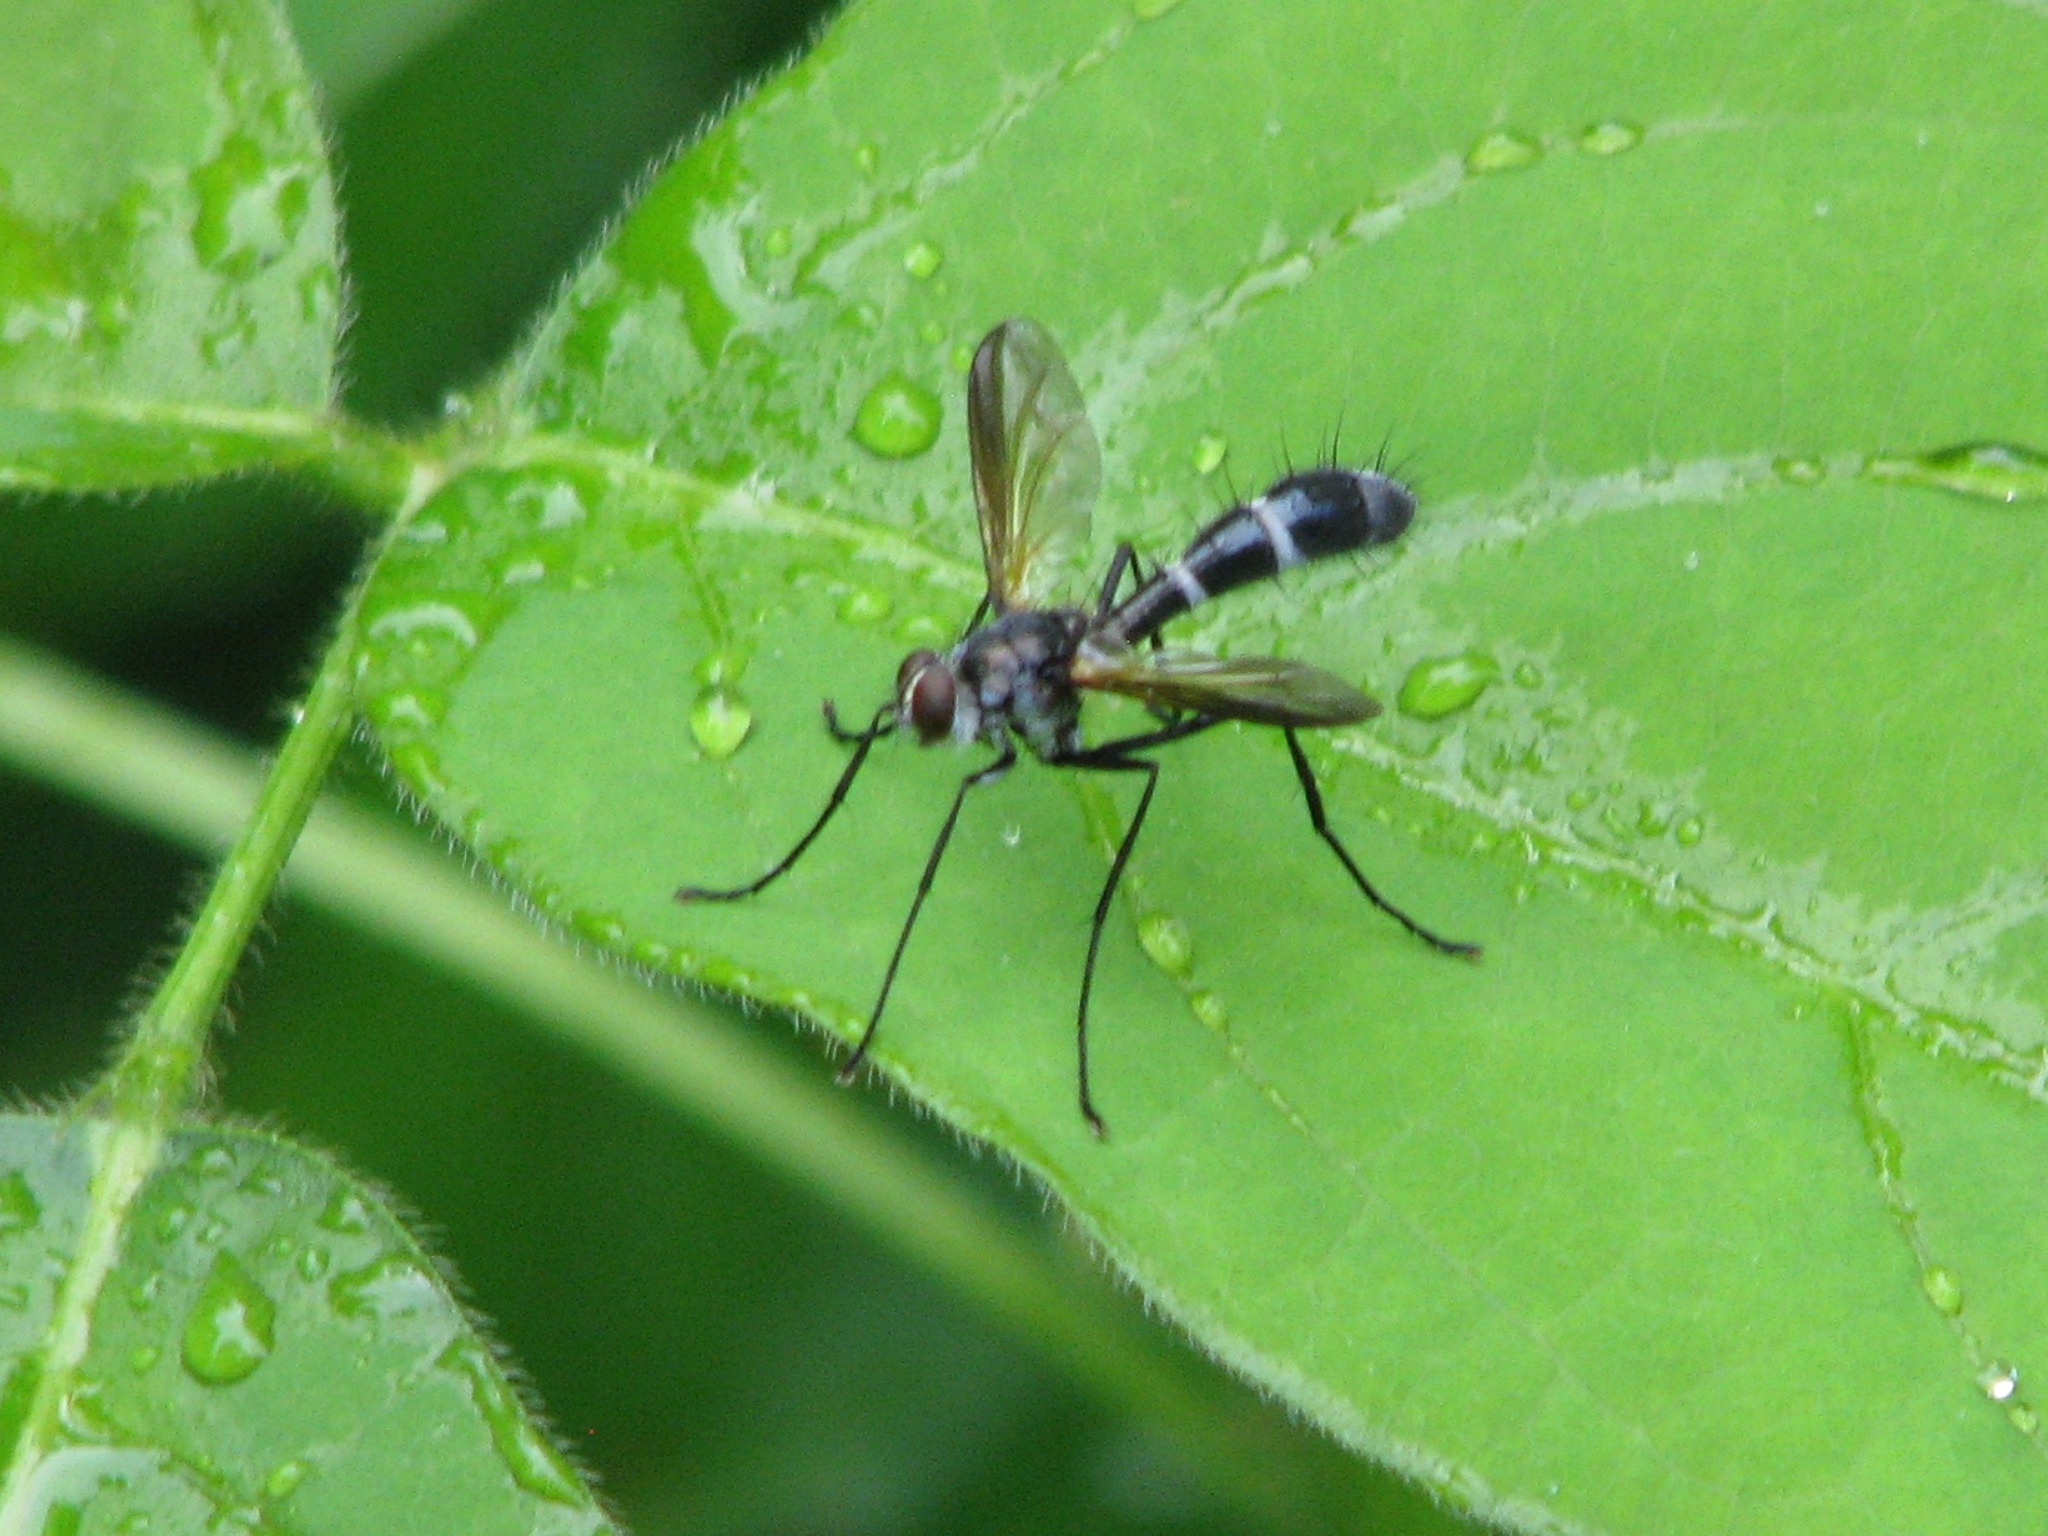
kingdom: Animalia
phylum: Arthropoda
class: Insecta
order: Diptera
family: Tachinidae
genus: Cordyligaster
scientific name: Cordyligaster septentrionalis
